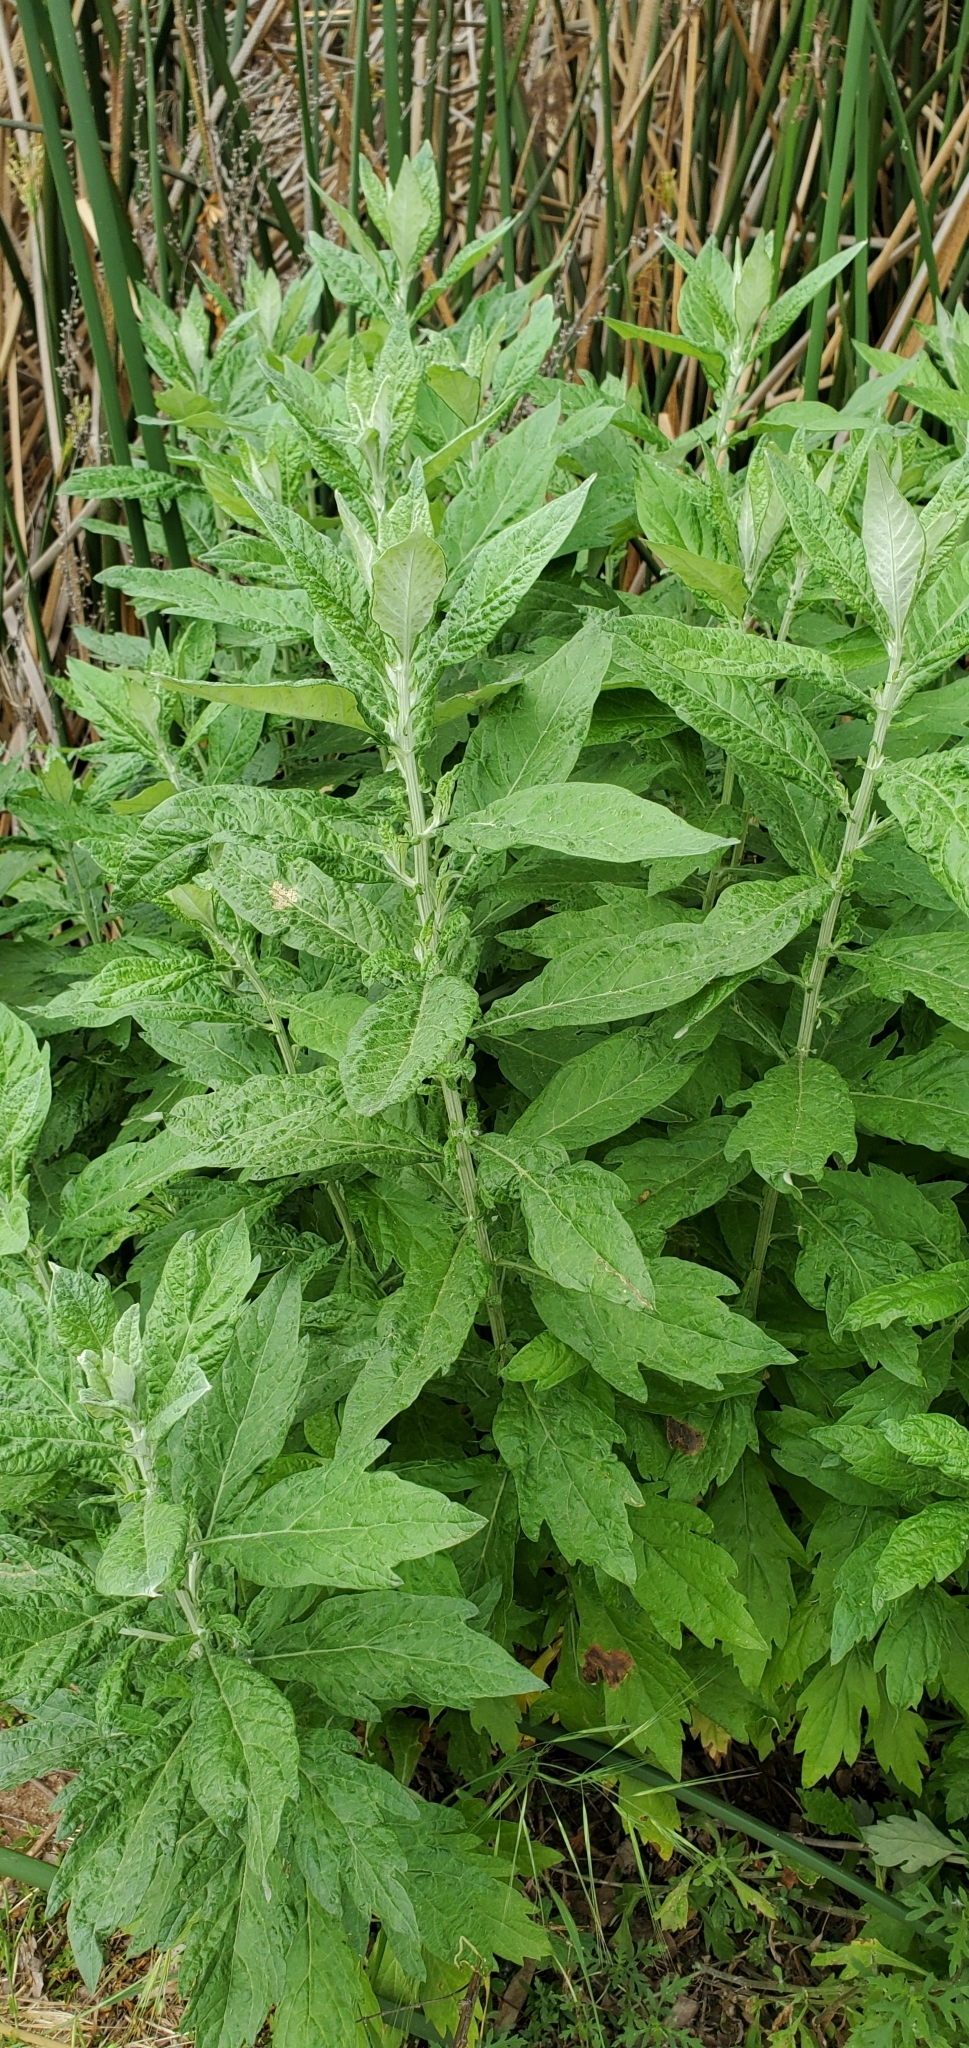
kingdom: Plantae
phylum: Tracheophyta
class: Magnoliopsida
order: Asterales
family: Asteraceae
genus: Artemisia
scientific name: Artemisia douglasiana
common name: Northwest mugwort
